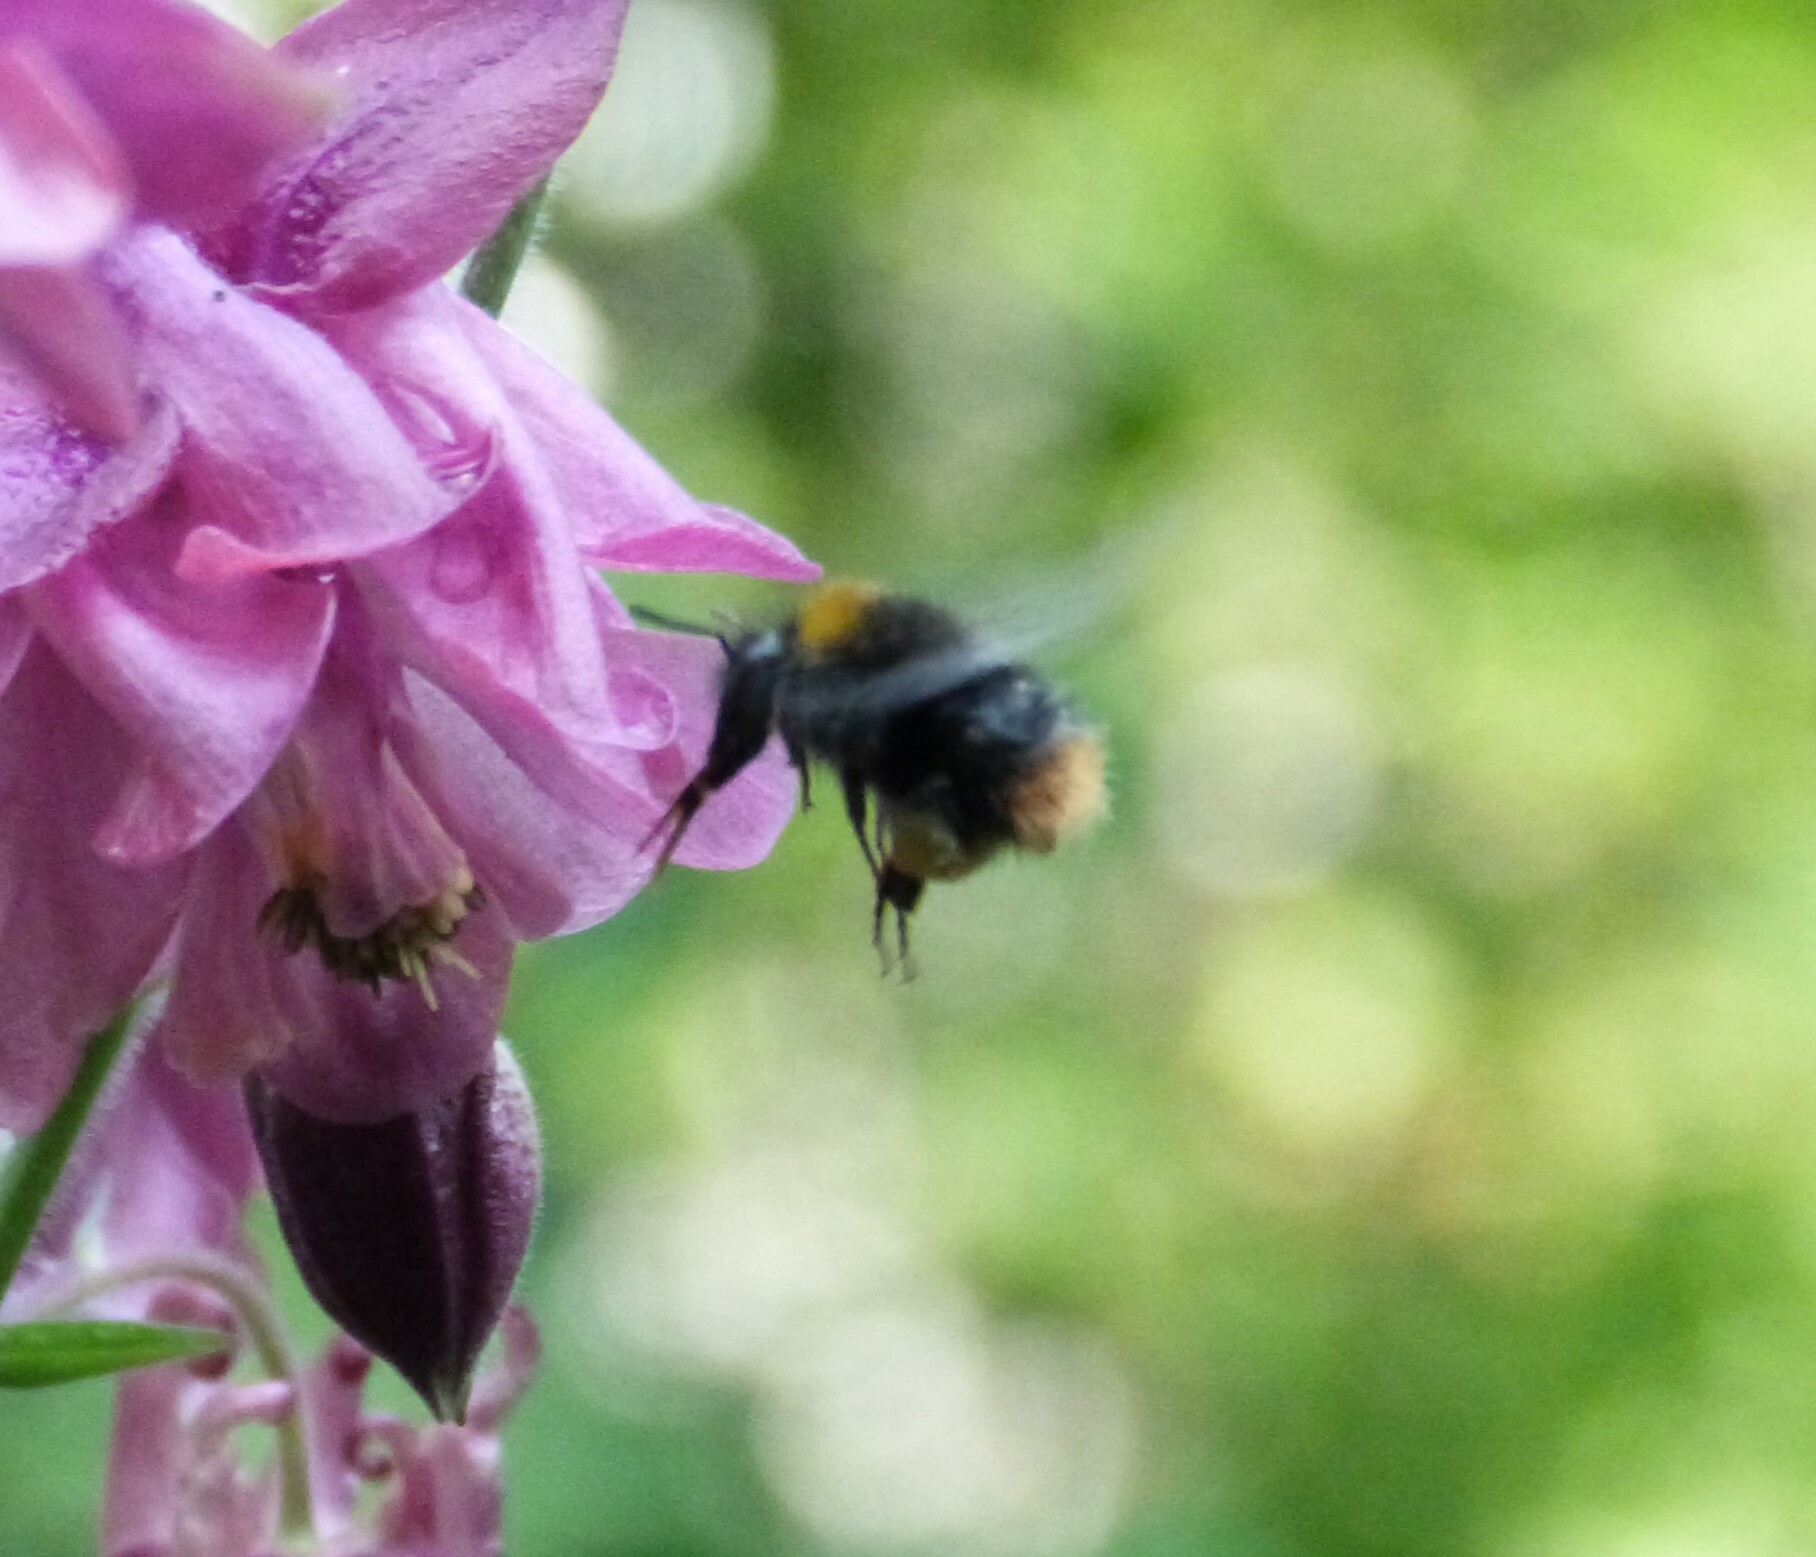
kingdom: Animalia
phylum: Arthropoda
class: Insecta
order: Hymenoptera
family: Apidae
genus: Bombus
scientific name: Bombus pratorum
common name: Early humble-bee
